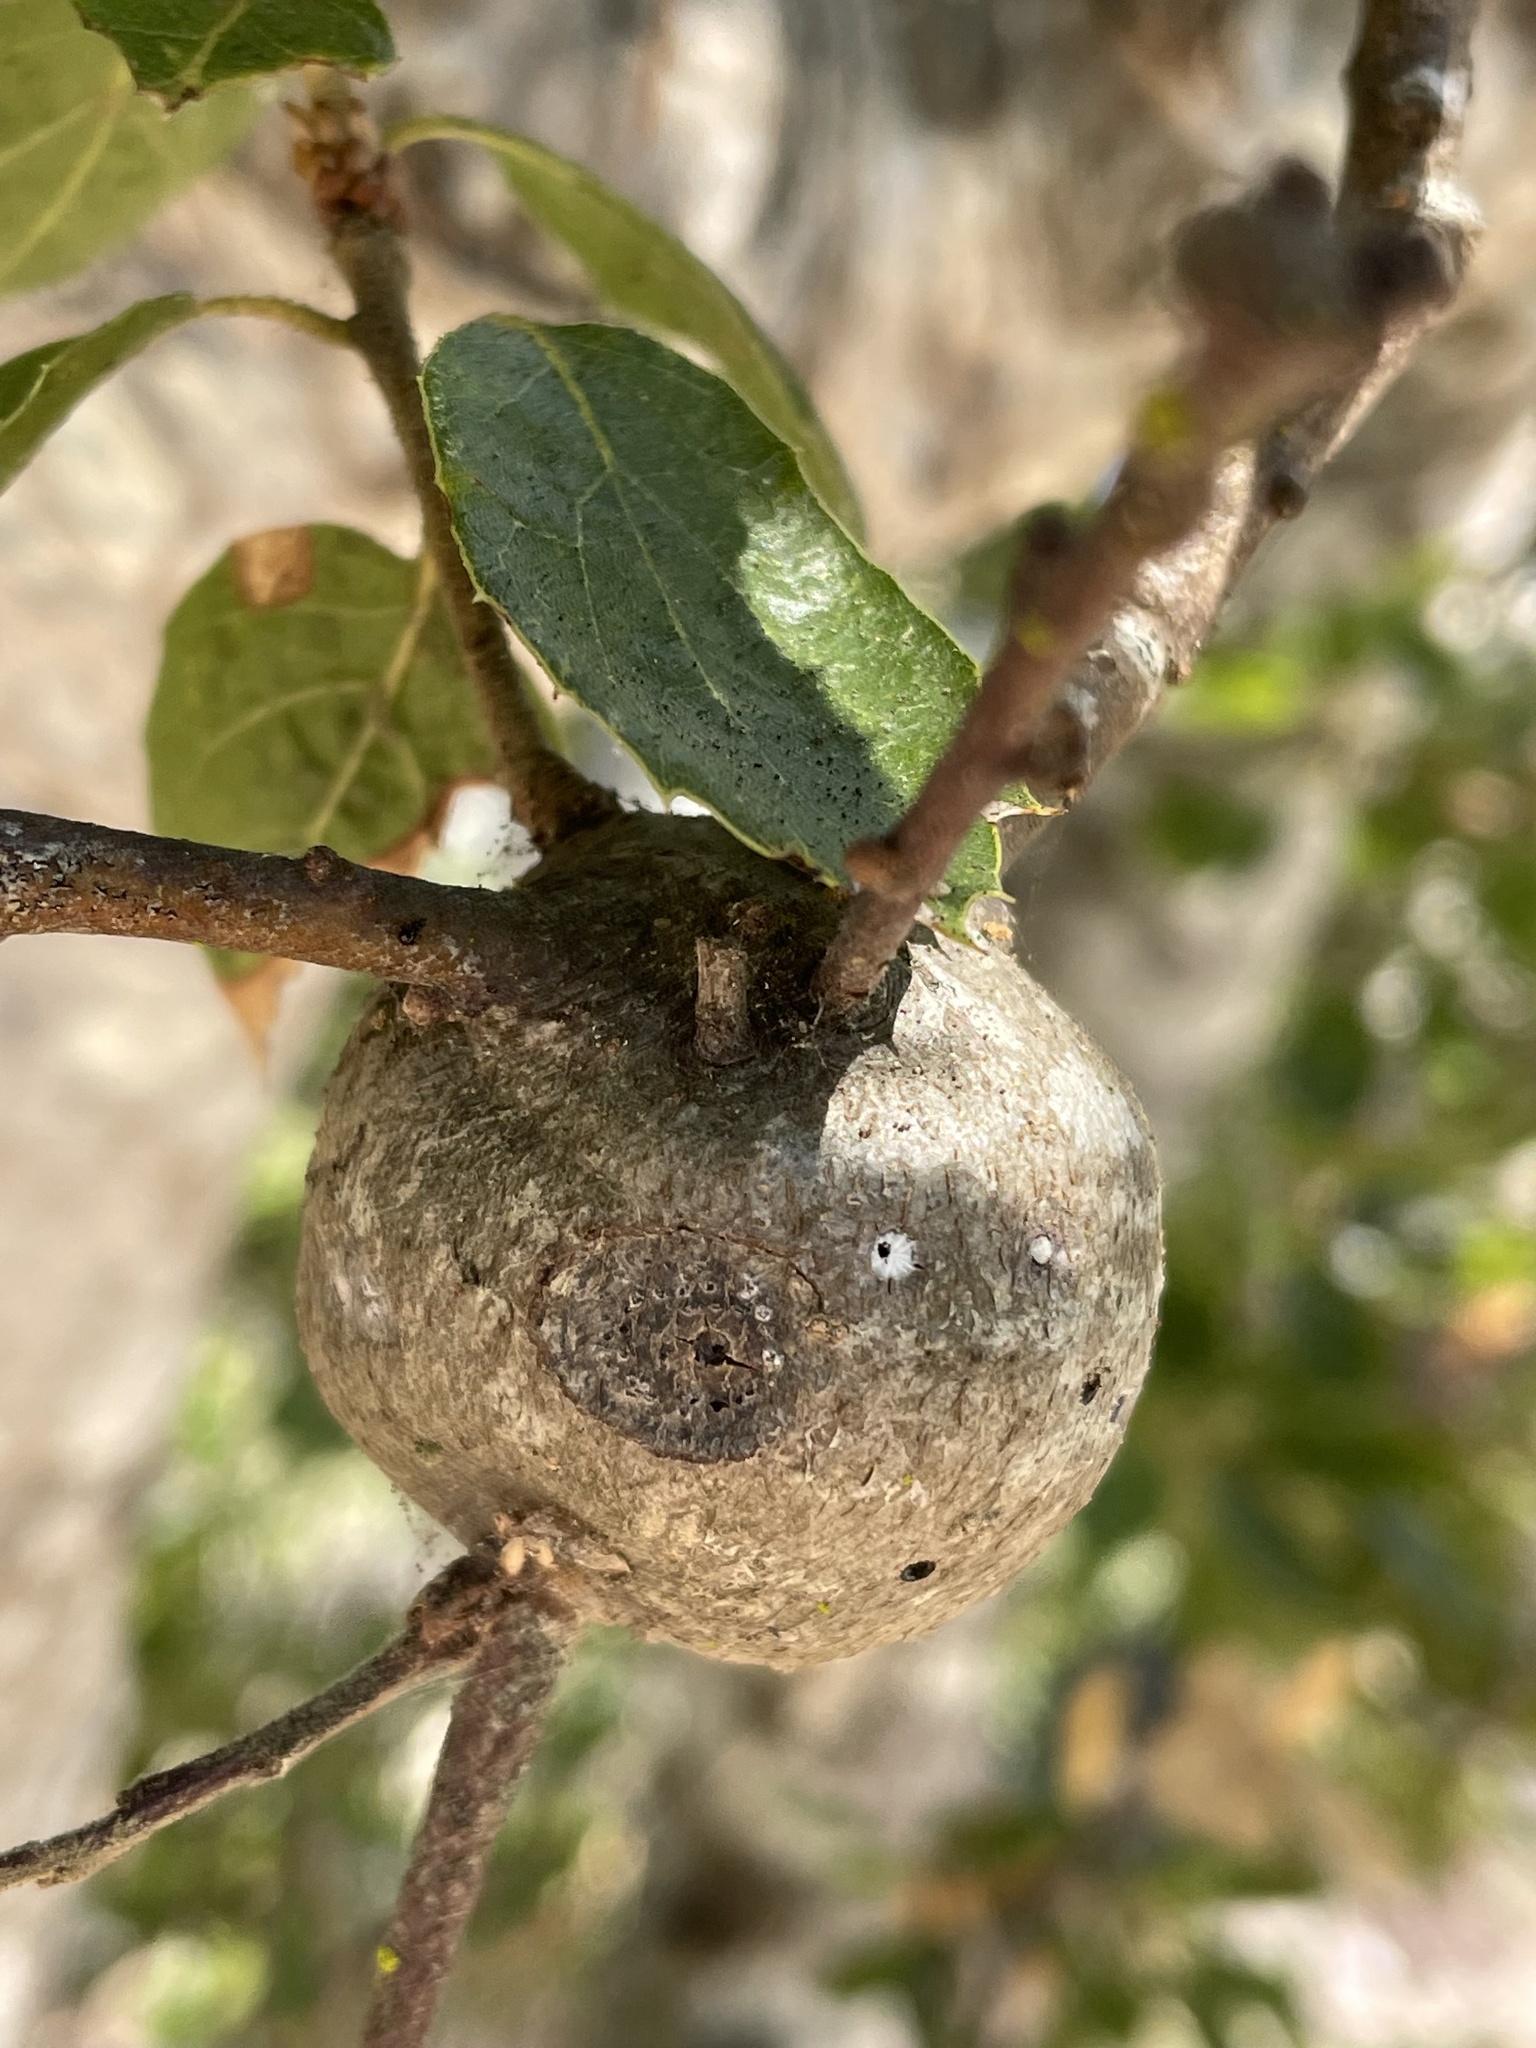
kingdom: Animalia
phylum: Arthropoda
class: Insecta
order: Hymenoptera
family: Cynipidae
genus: Callirhytis
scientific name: Callirhytis
